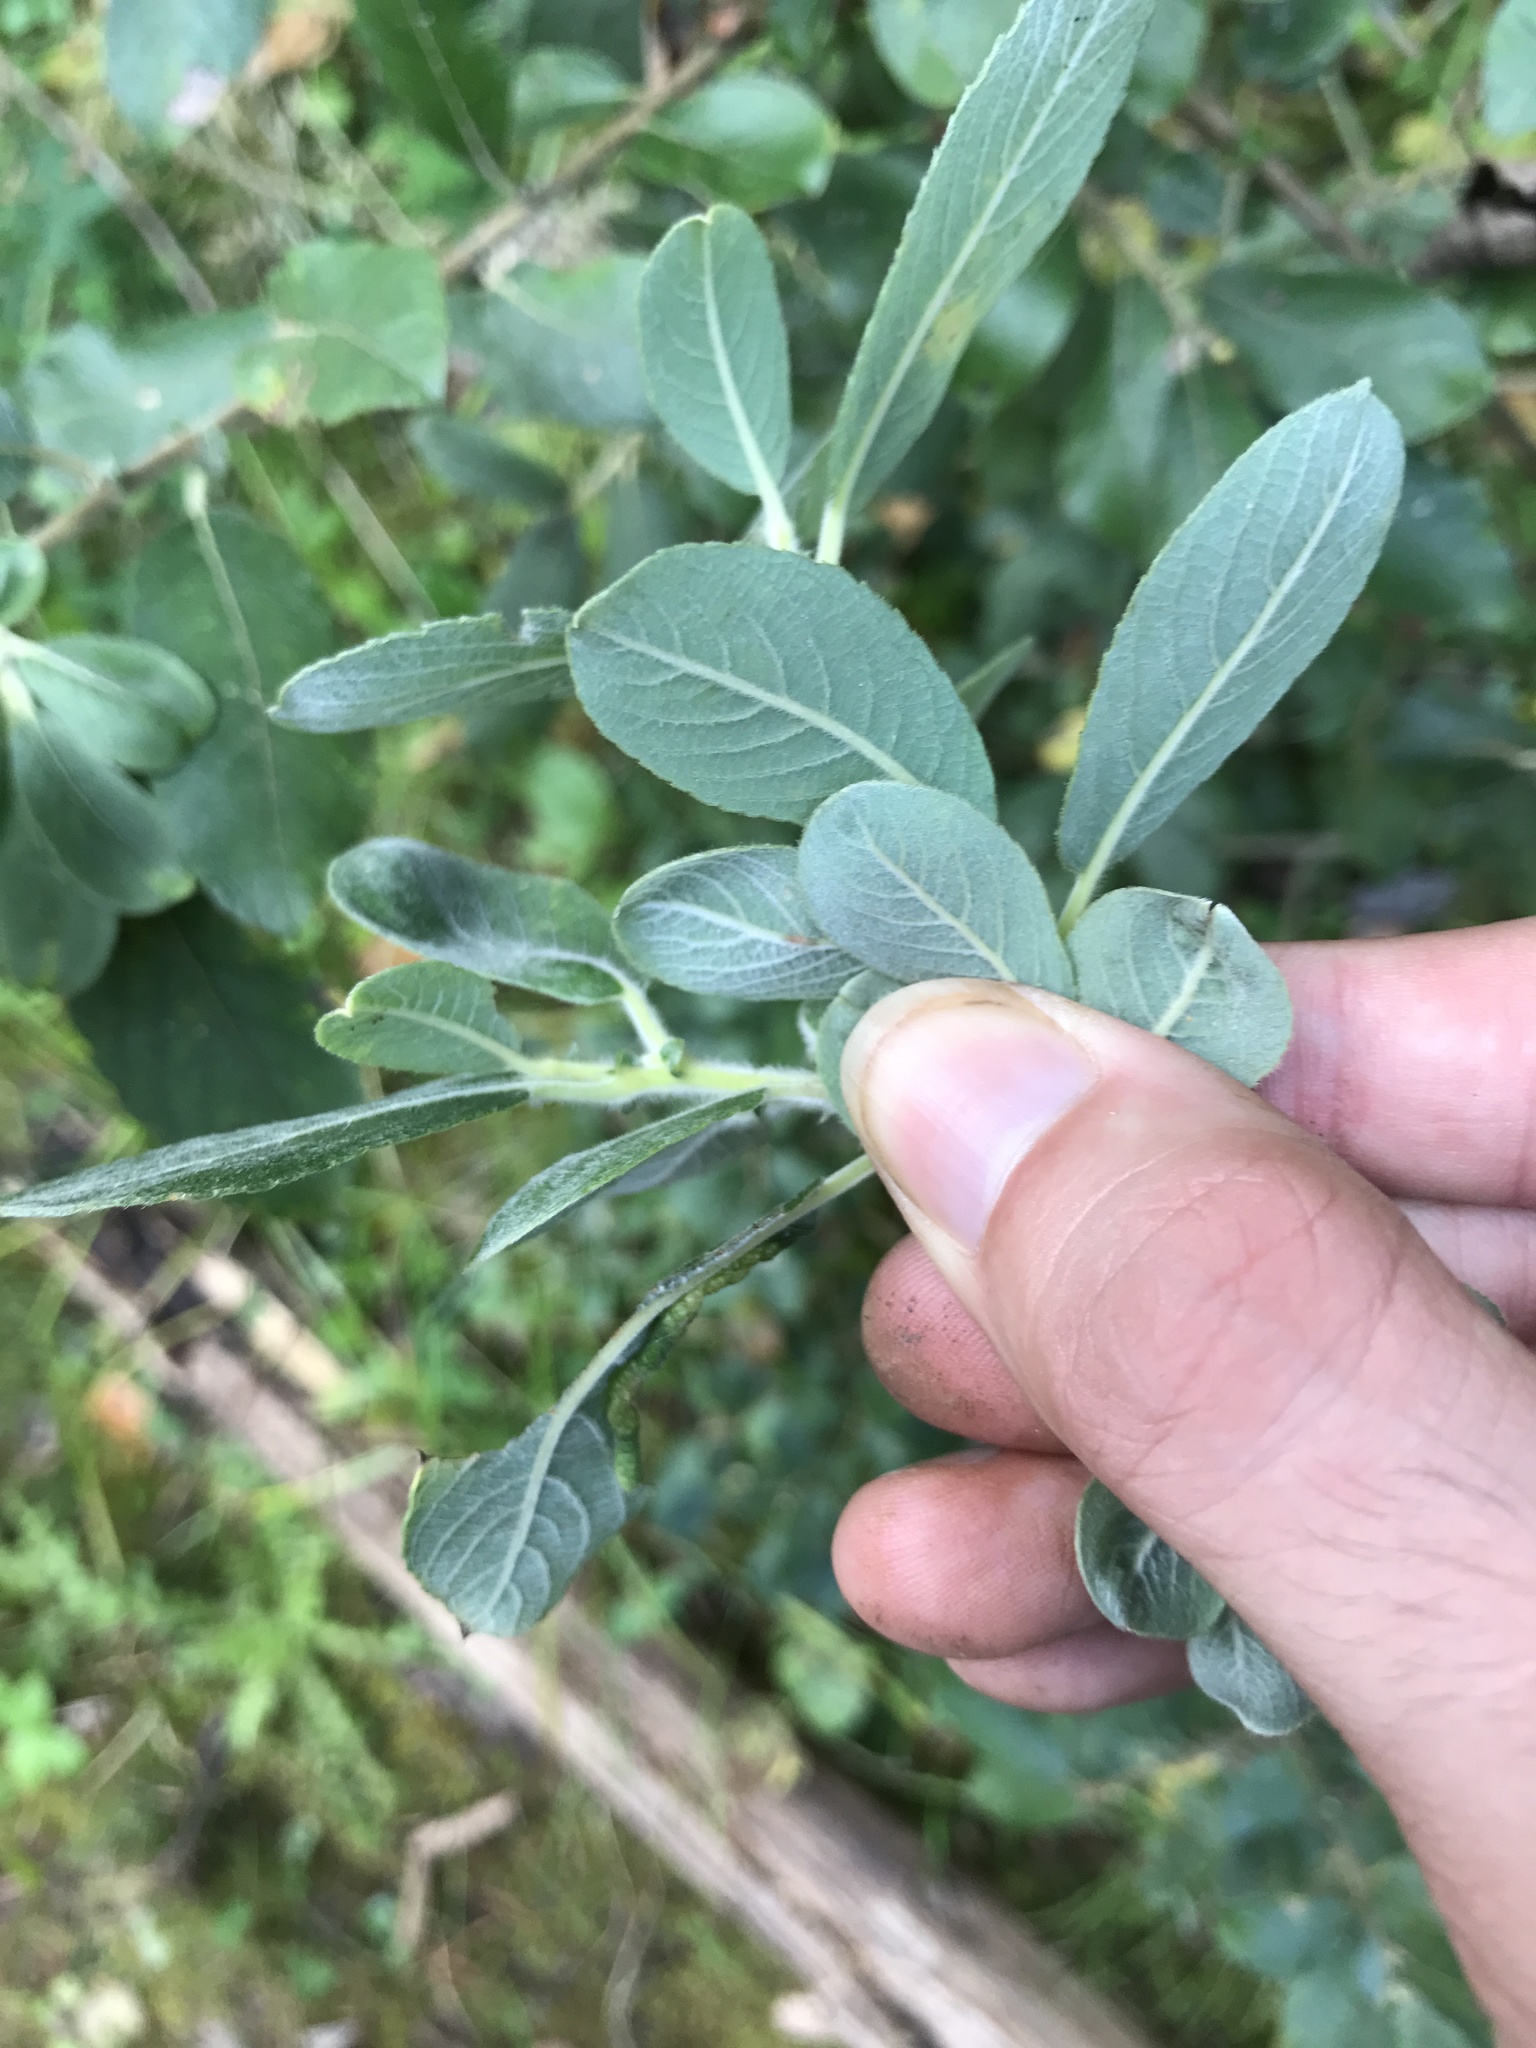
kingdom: Plantae
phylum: Tracheophyta
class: Magnoliopsida
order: Malpighiales
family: Salicaceae
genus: Salix
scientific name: Salix cinerea
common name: Common sallow
